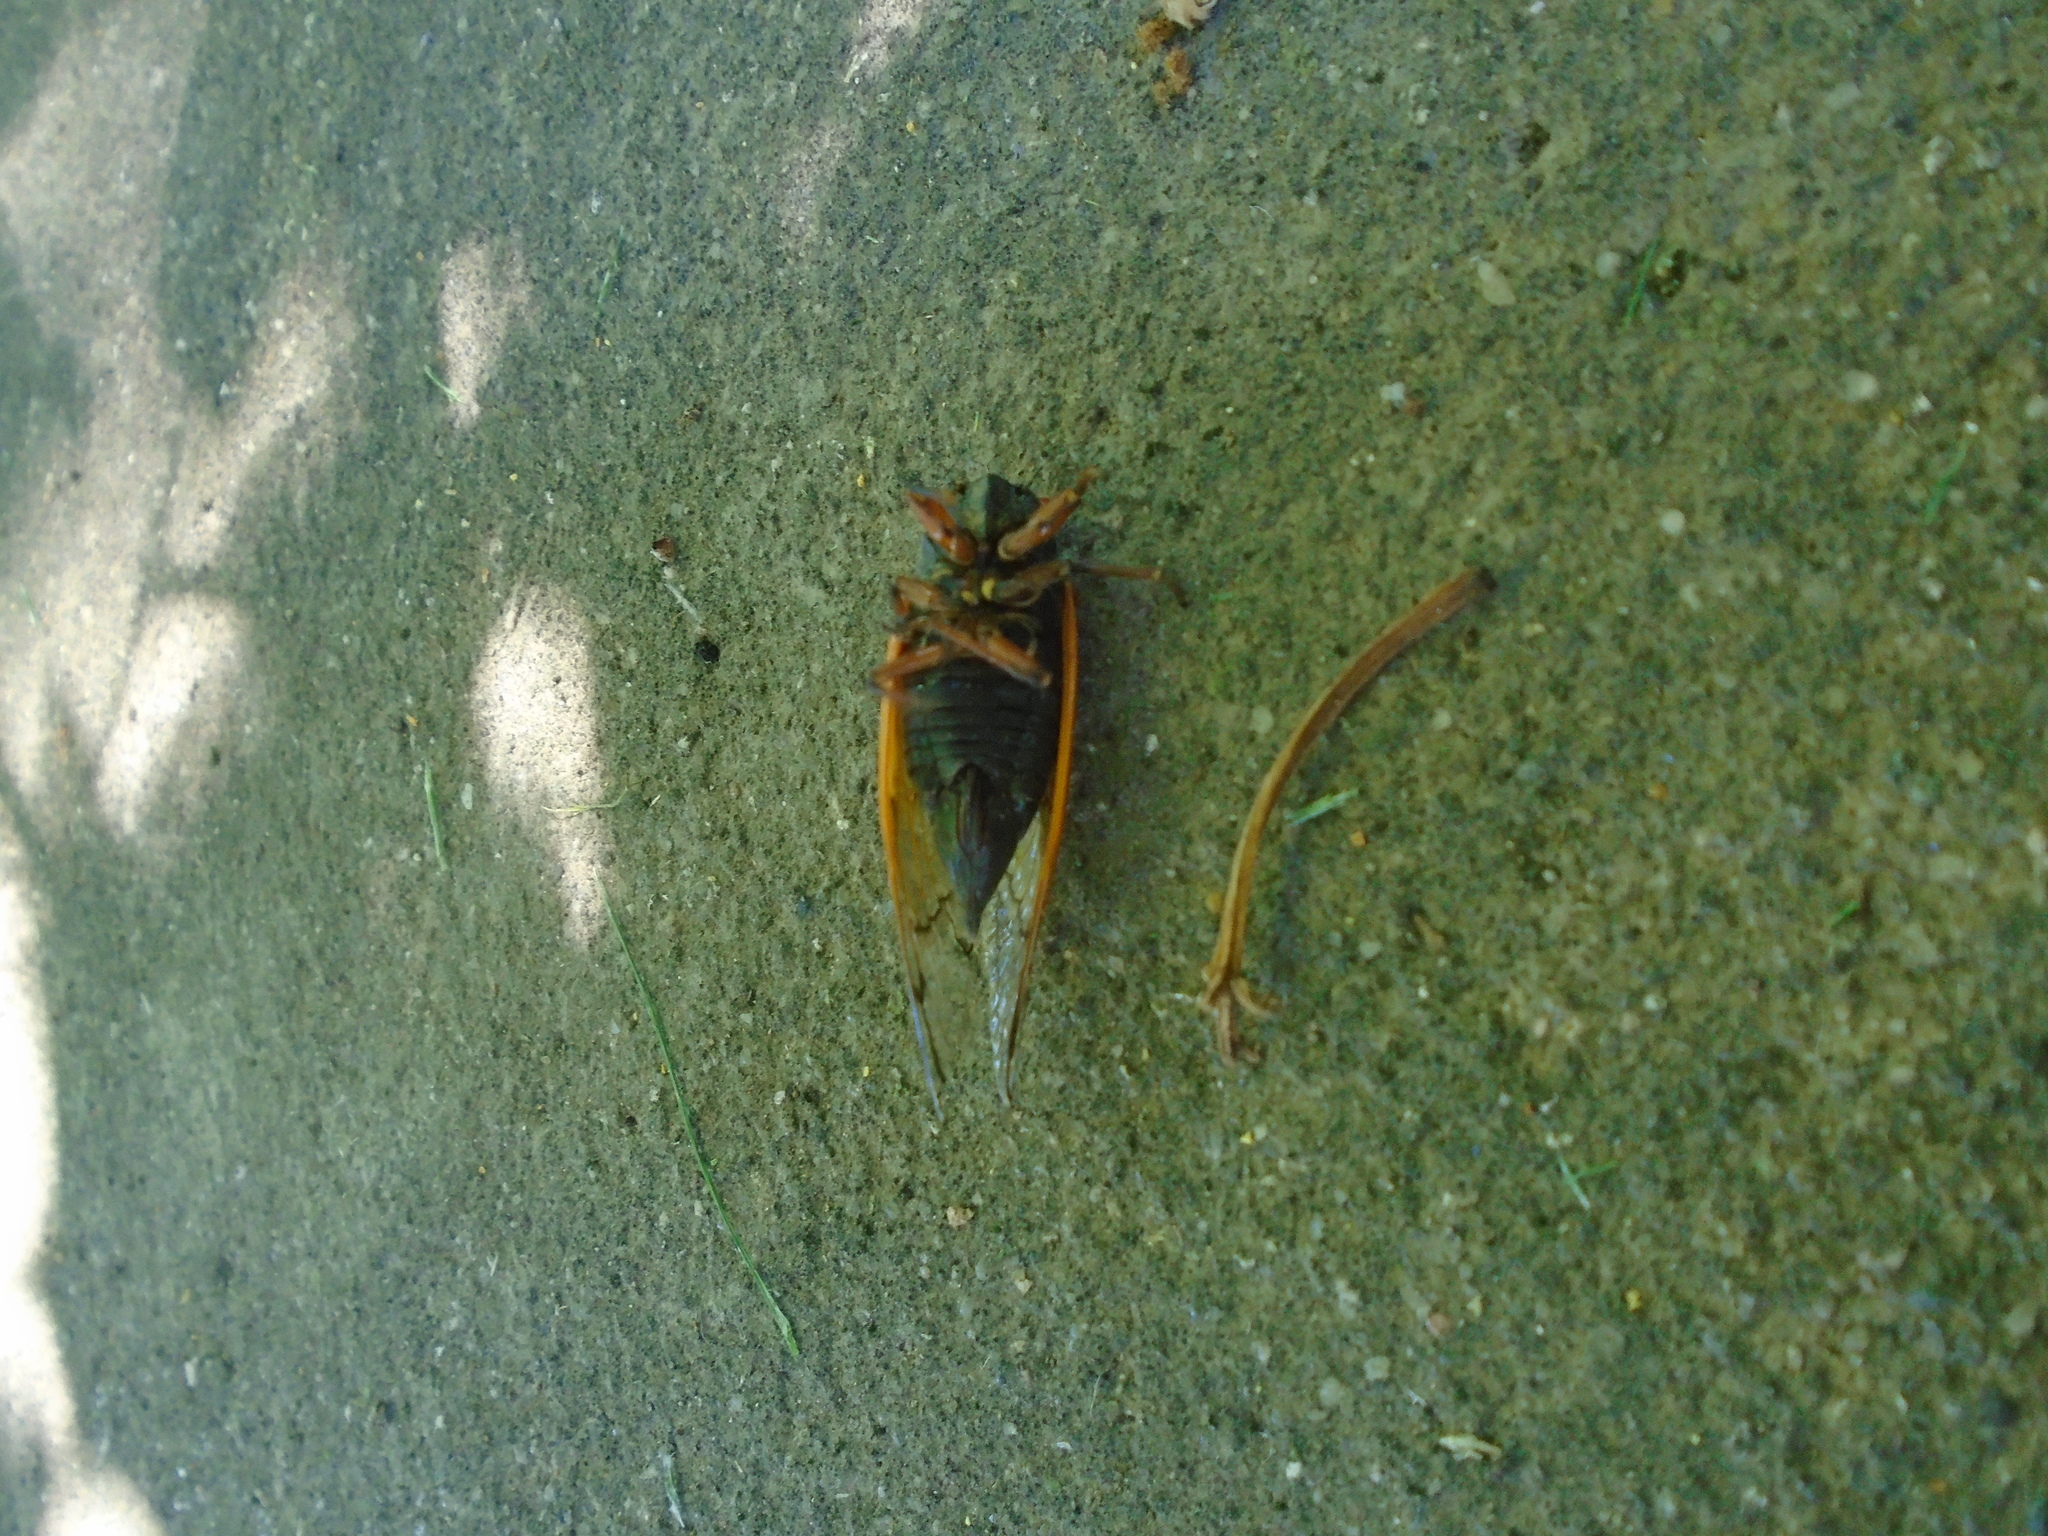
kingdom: Animalia
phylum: Arthropoda
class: Insecta
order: Hemiptera
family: Cicadidae
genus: Magicicada
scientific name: Magicicada cassini
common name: Cassin's 17-year cicada
